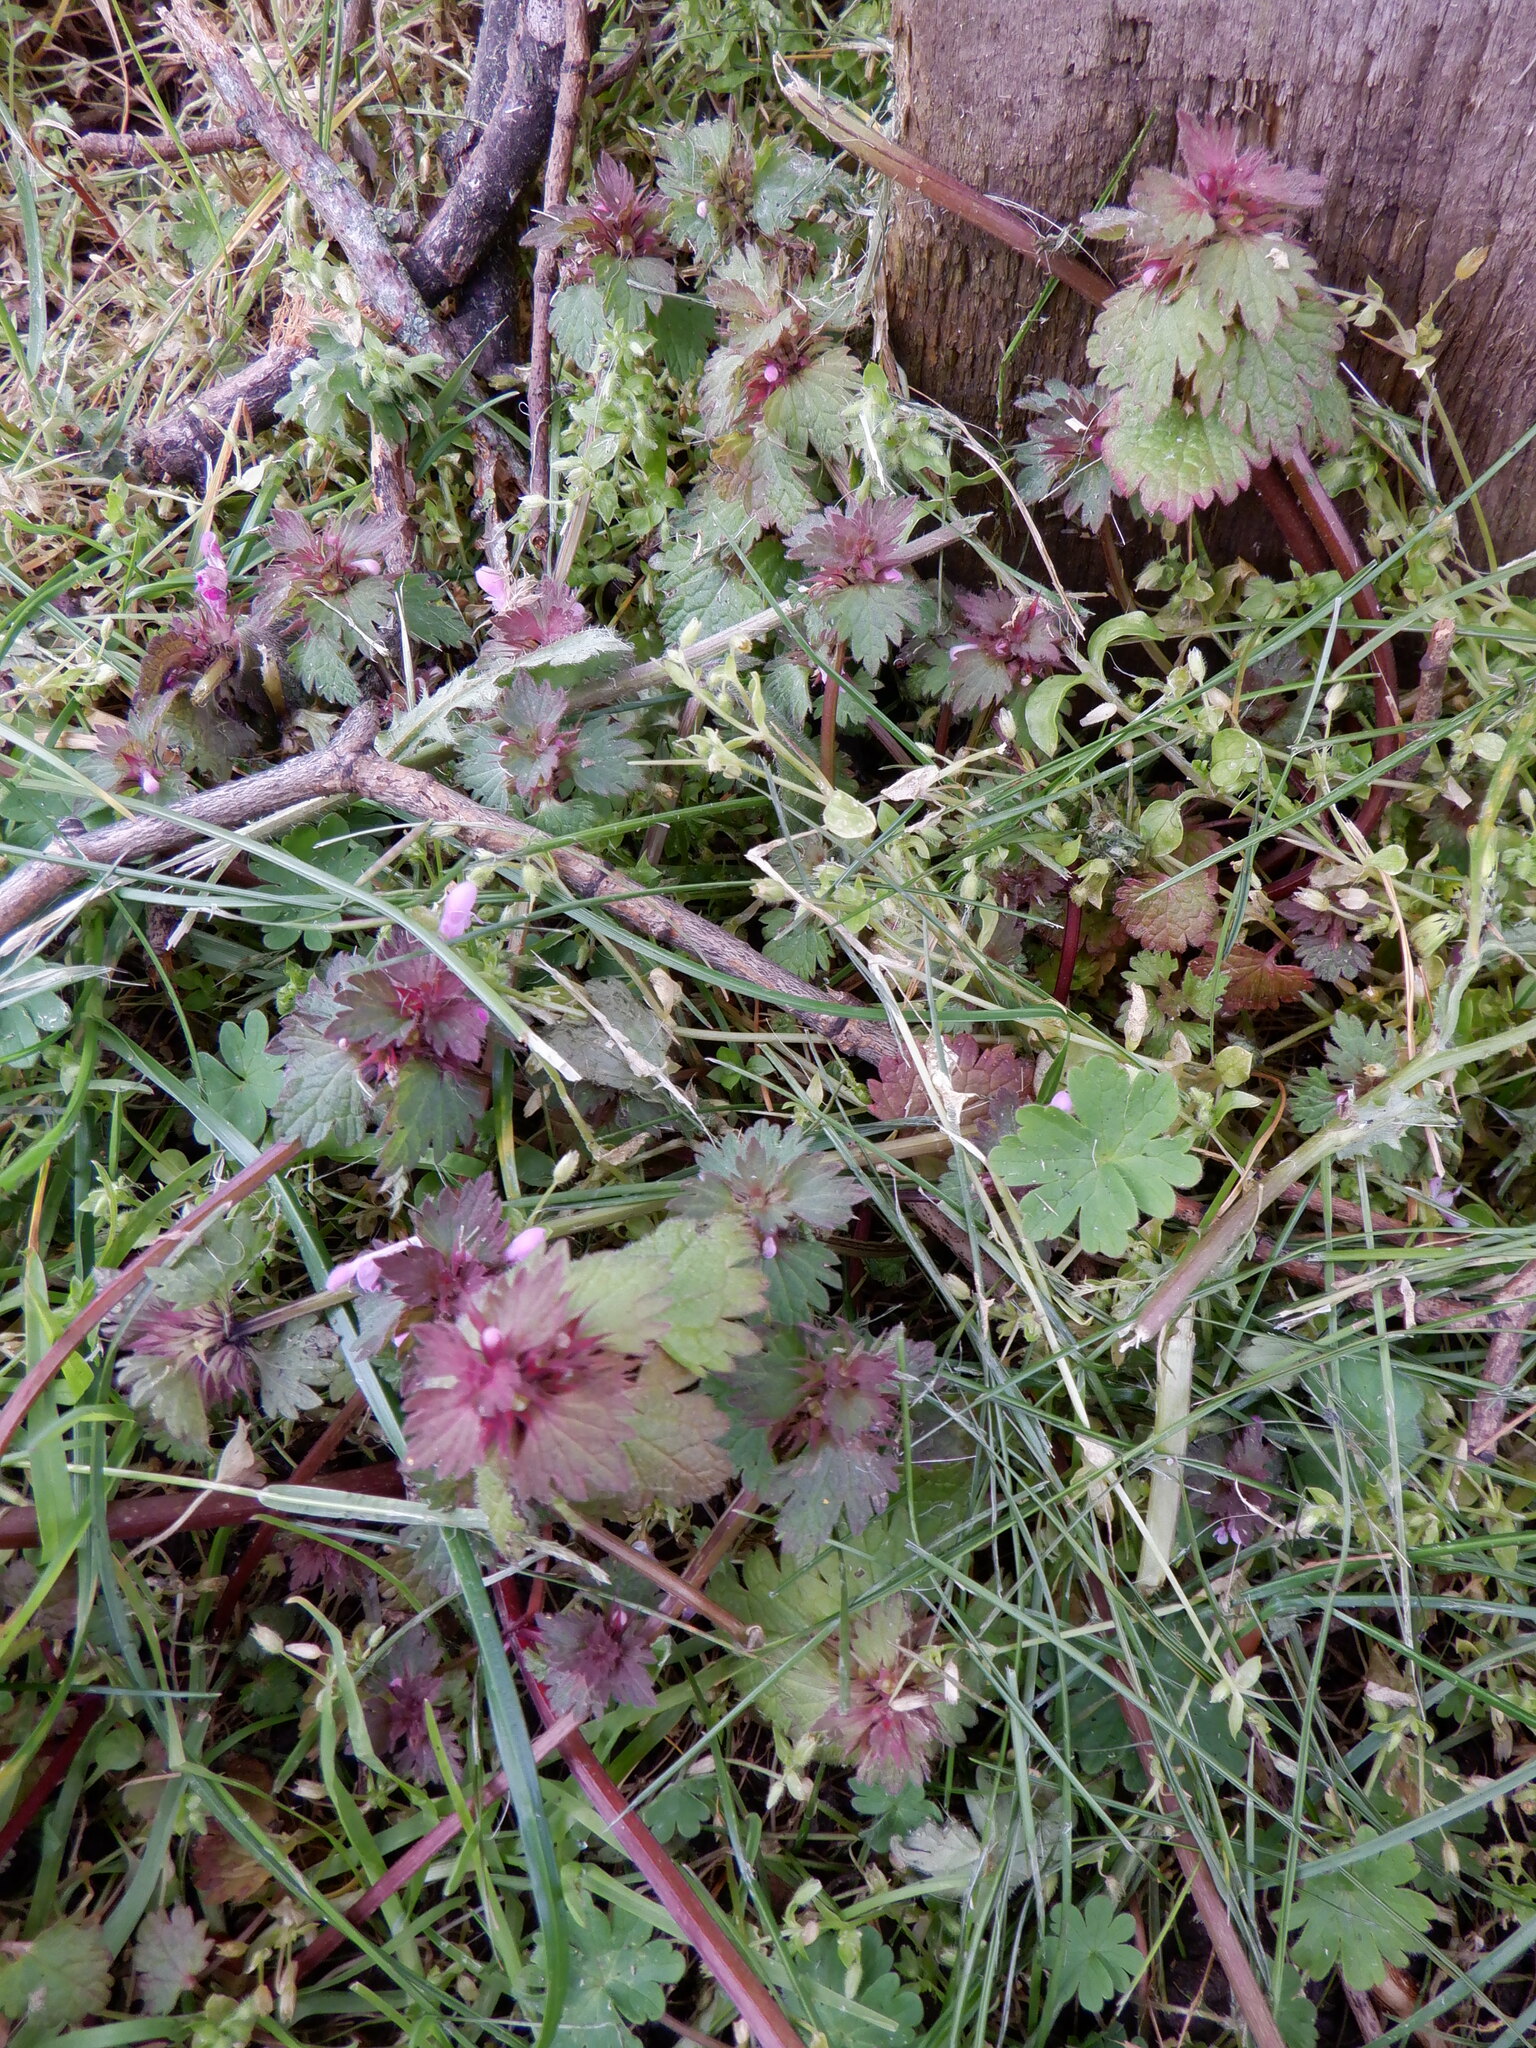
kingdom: Plantae
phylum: Tracheophyta
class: Magnoliopsida
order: Lamiales
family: Lamiaceae
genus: Lamium
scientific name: Lamium hybridum
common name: Cut-leaved dead-nettle
